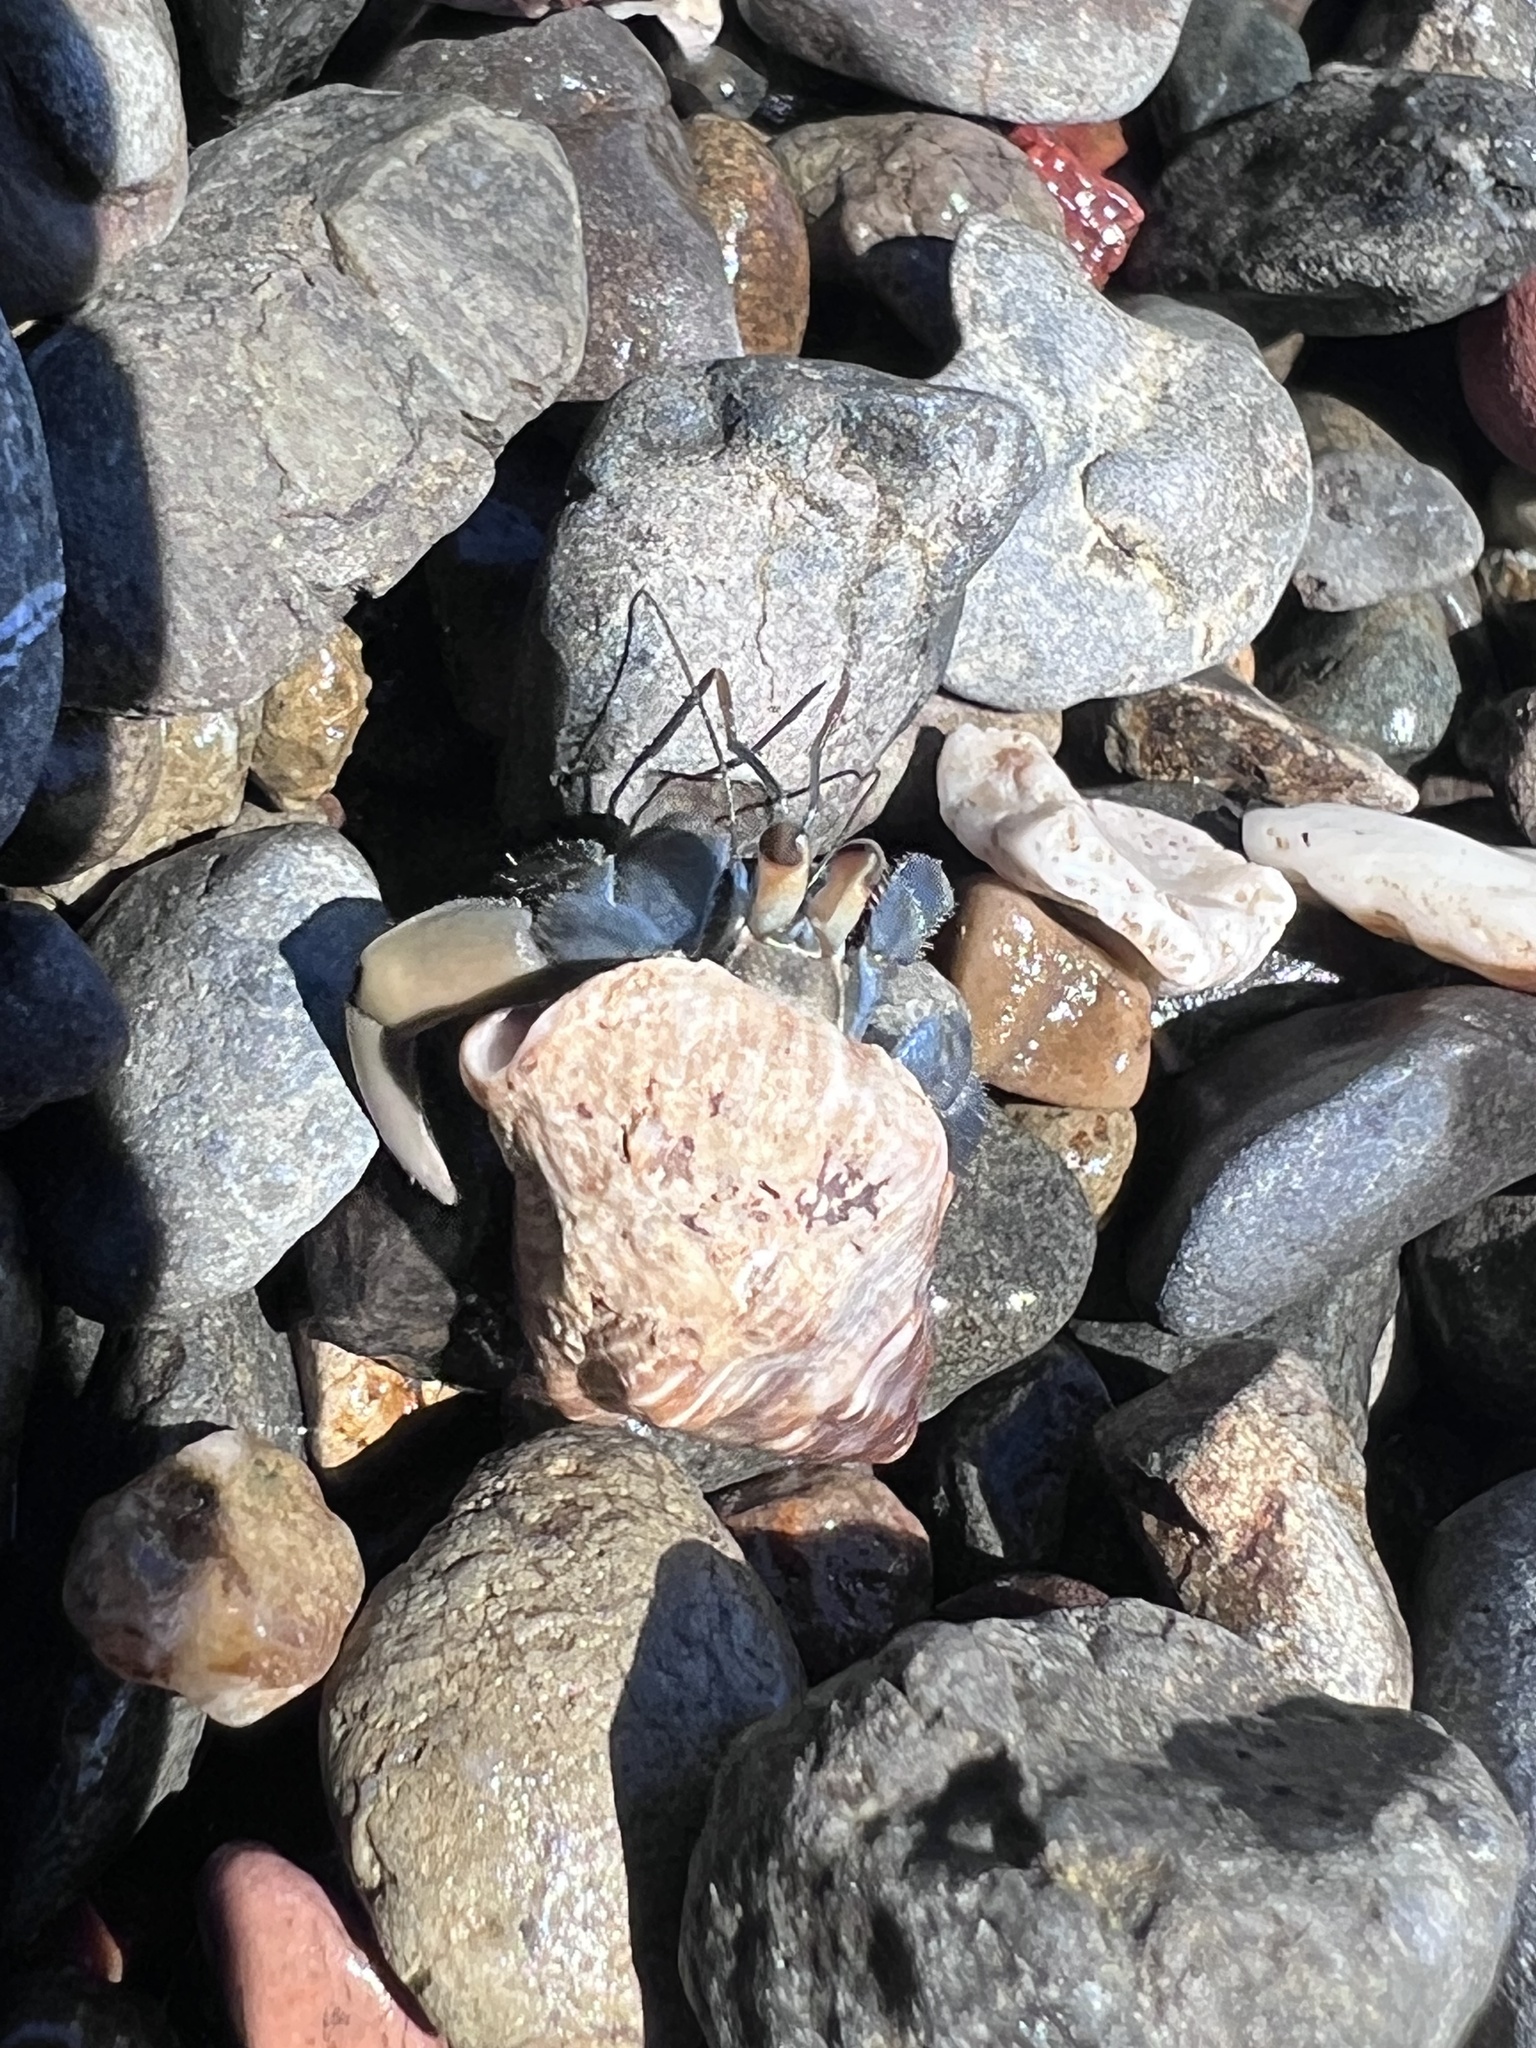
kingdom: Animalia
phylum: Arthropoda
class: Malacostraca
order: Decapoda
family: Coenobitidae
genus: Coenobita
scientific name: Coenobita compressus
